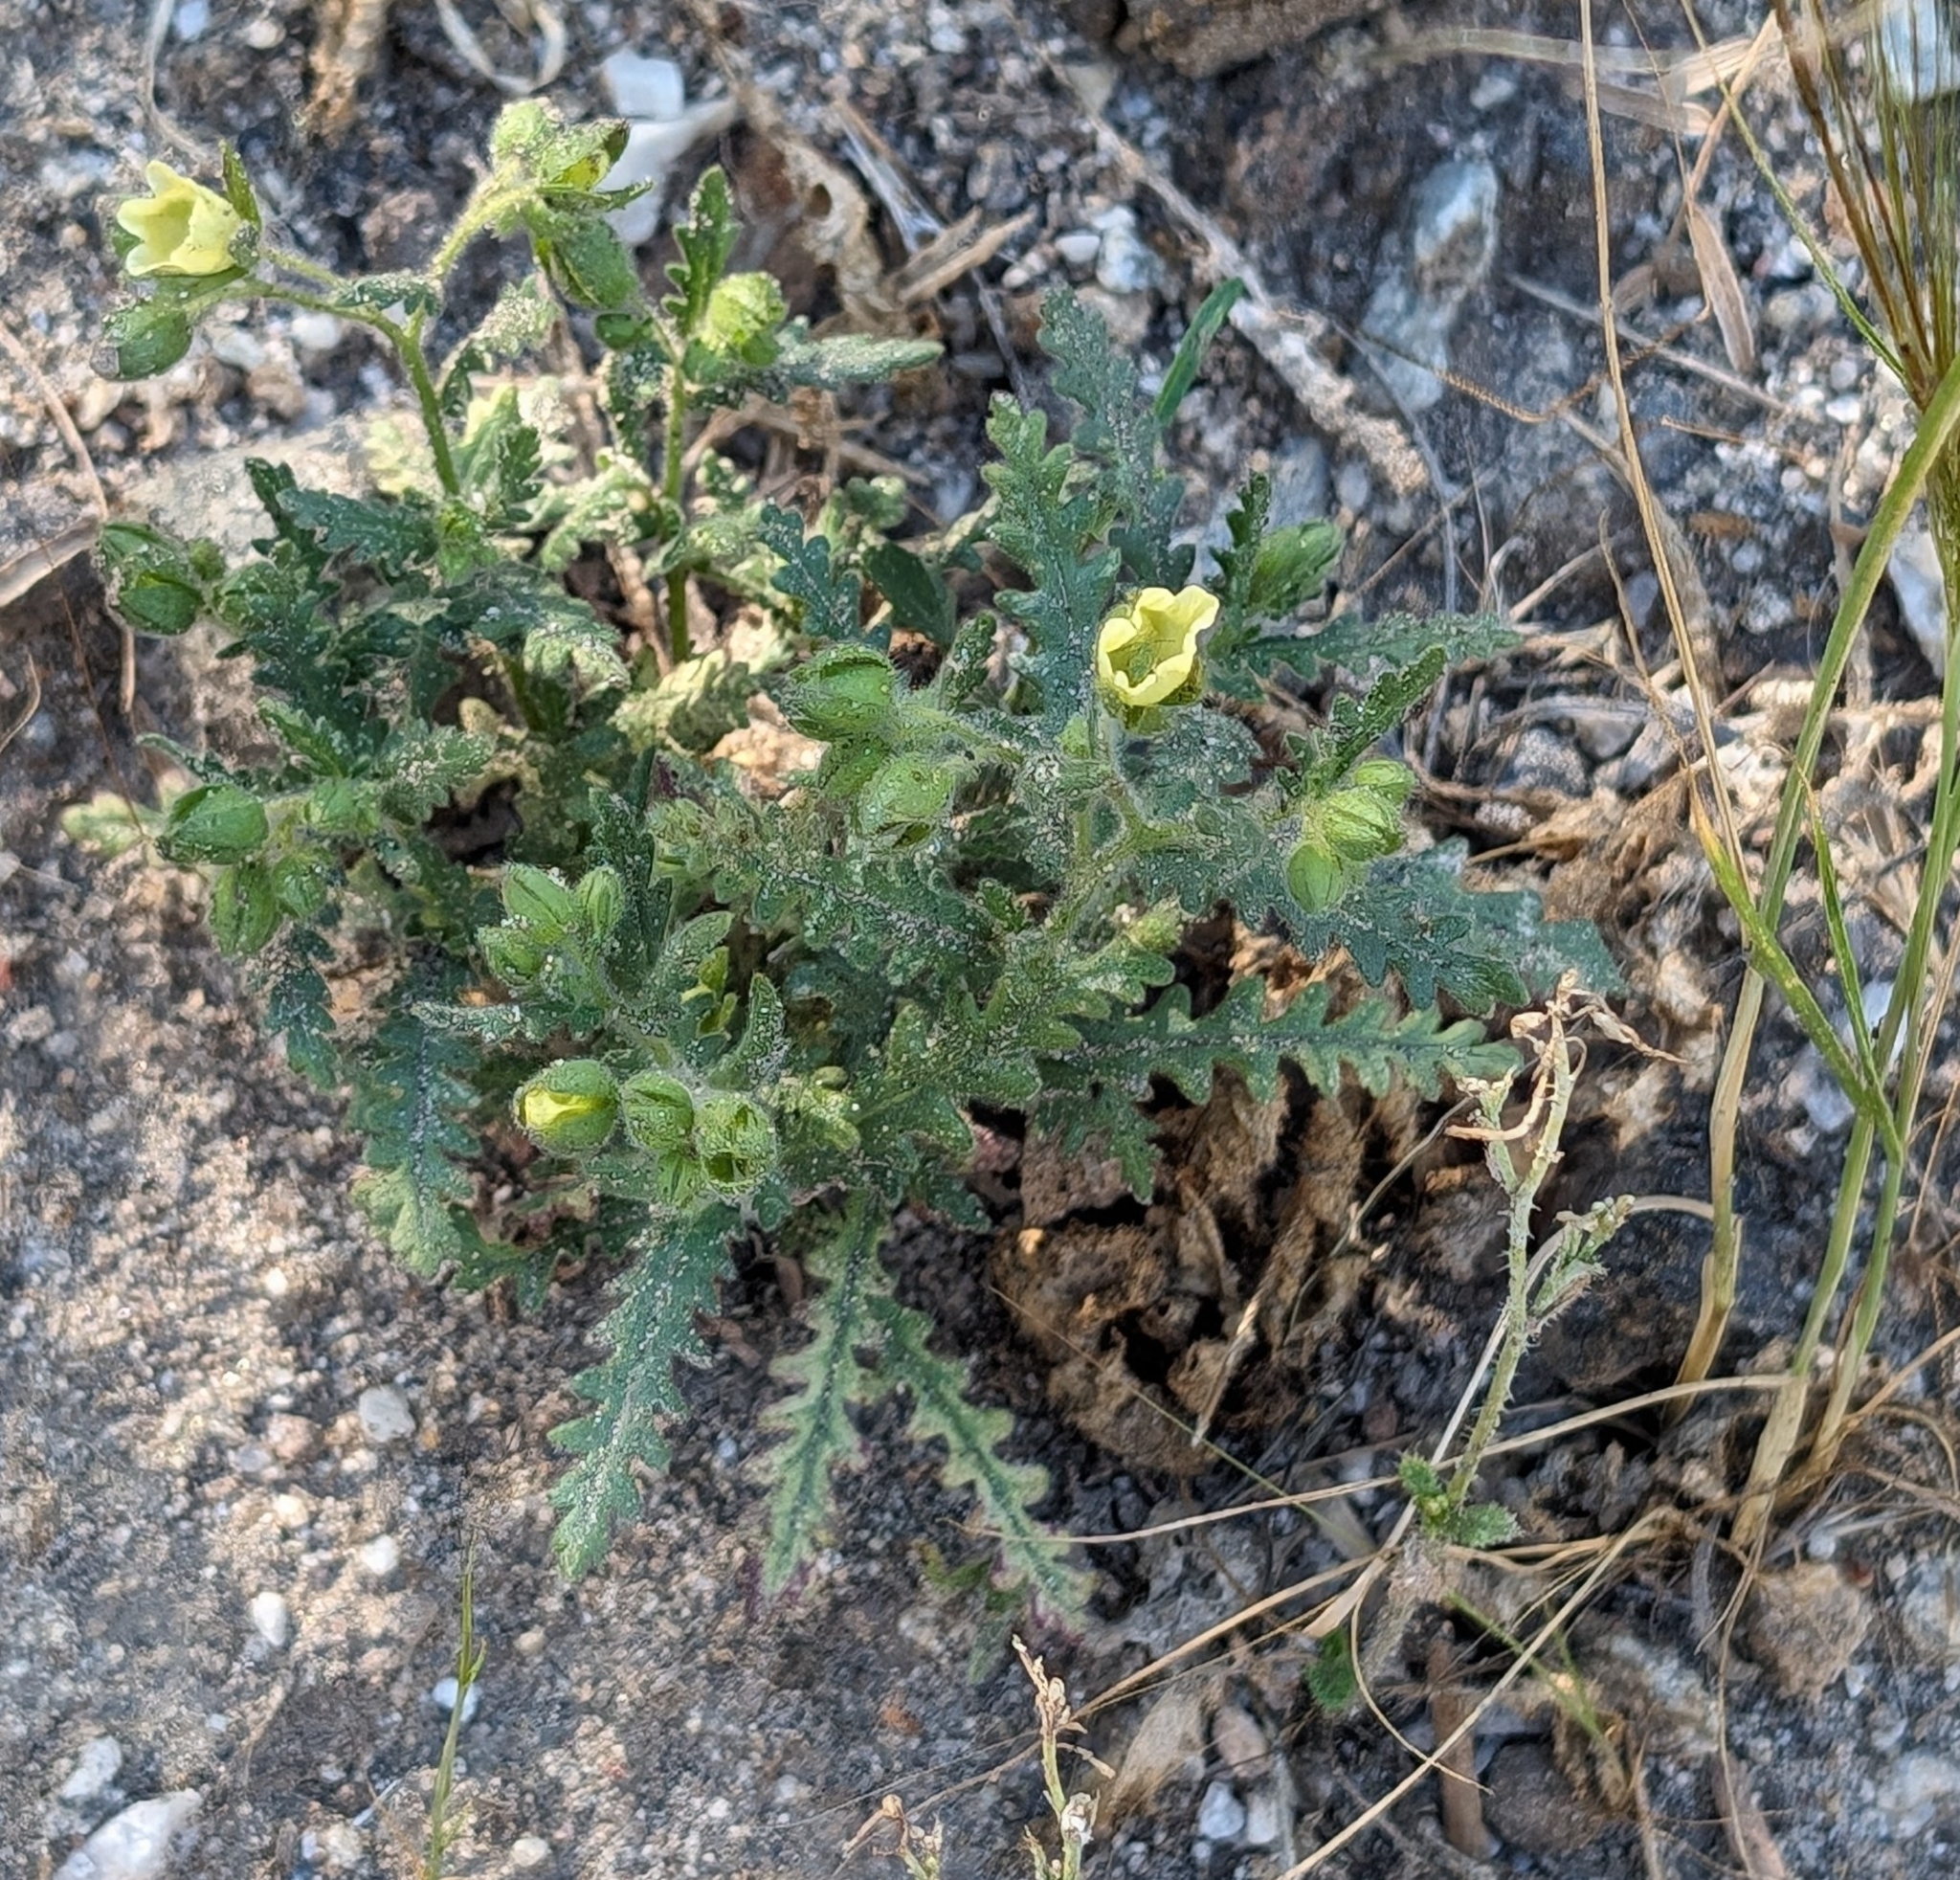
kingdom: Plantae
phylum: Tracheophyta
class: Magnoliopsida
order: Boraginales
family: Hydrophyllaceae
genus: Emmenanthe
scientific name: Emmenanthe penduliflora
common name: Whispering-bells
